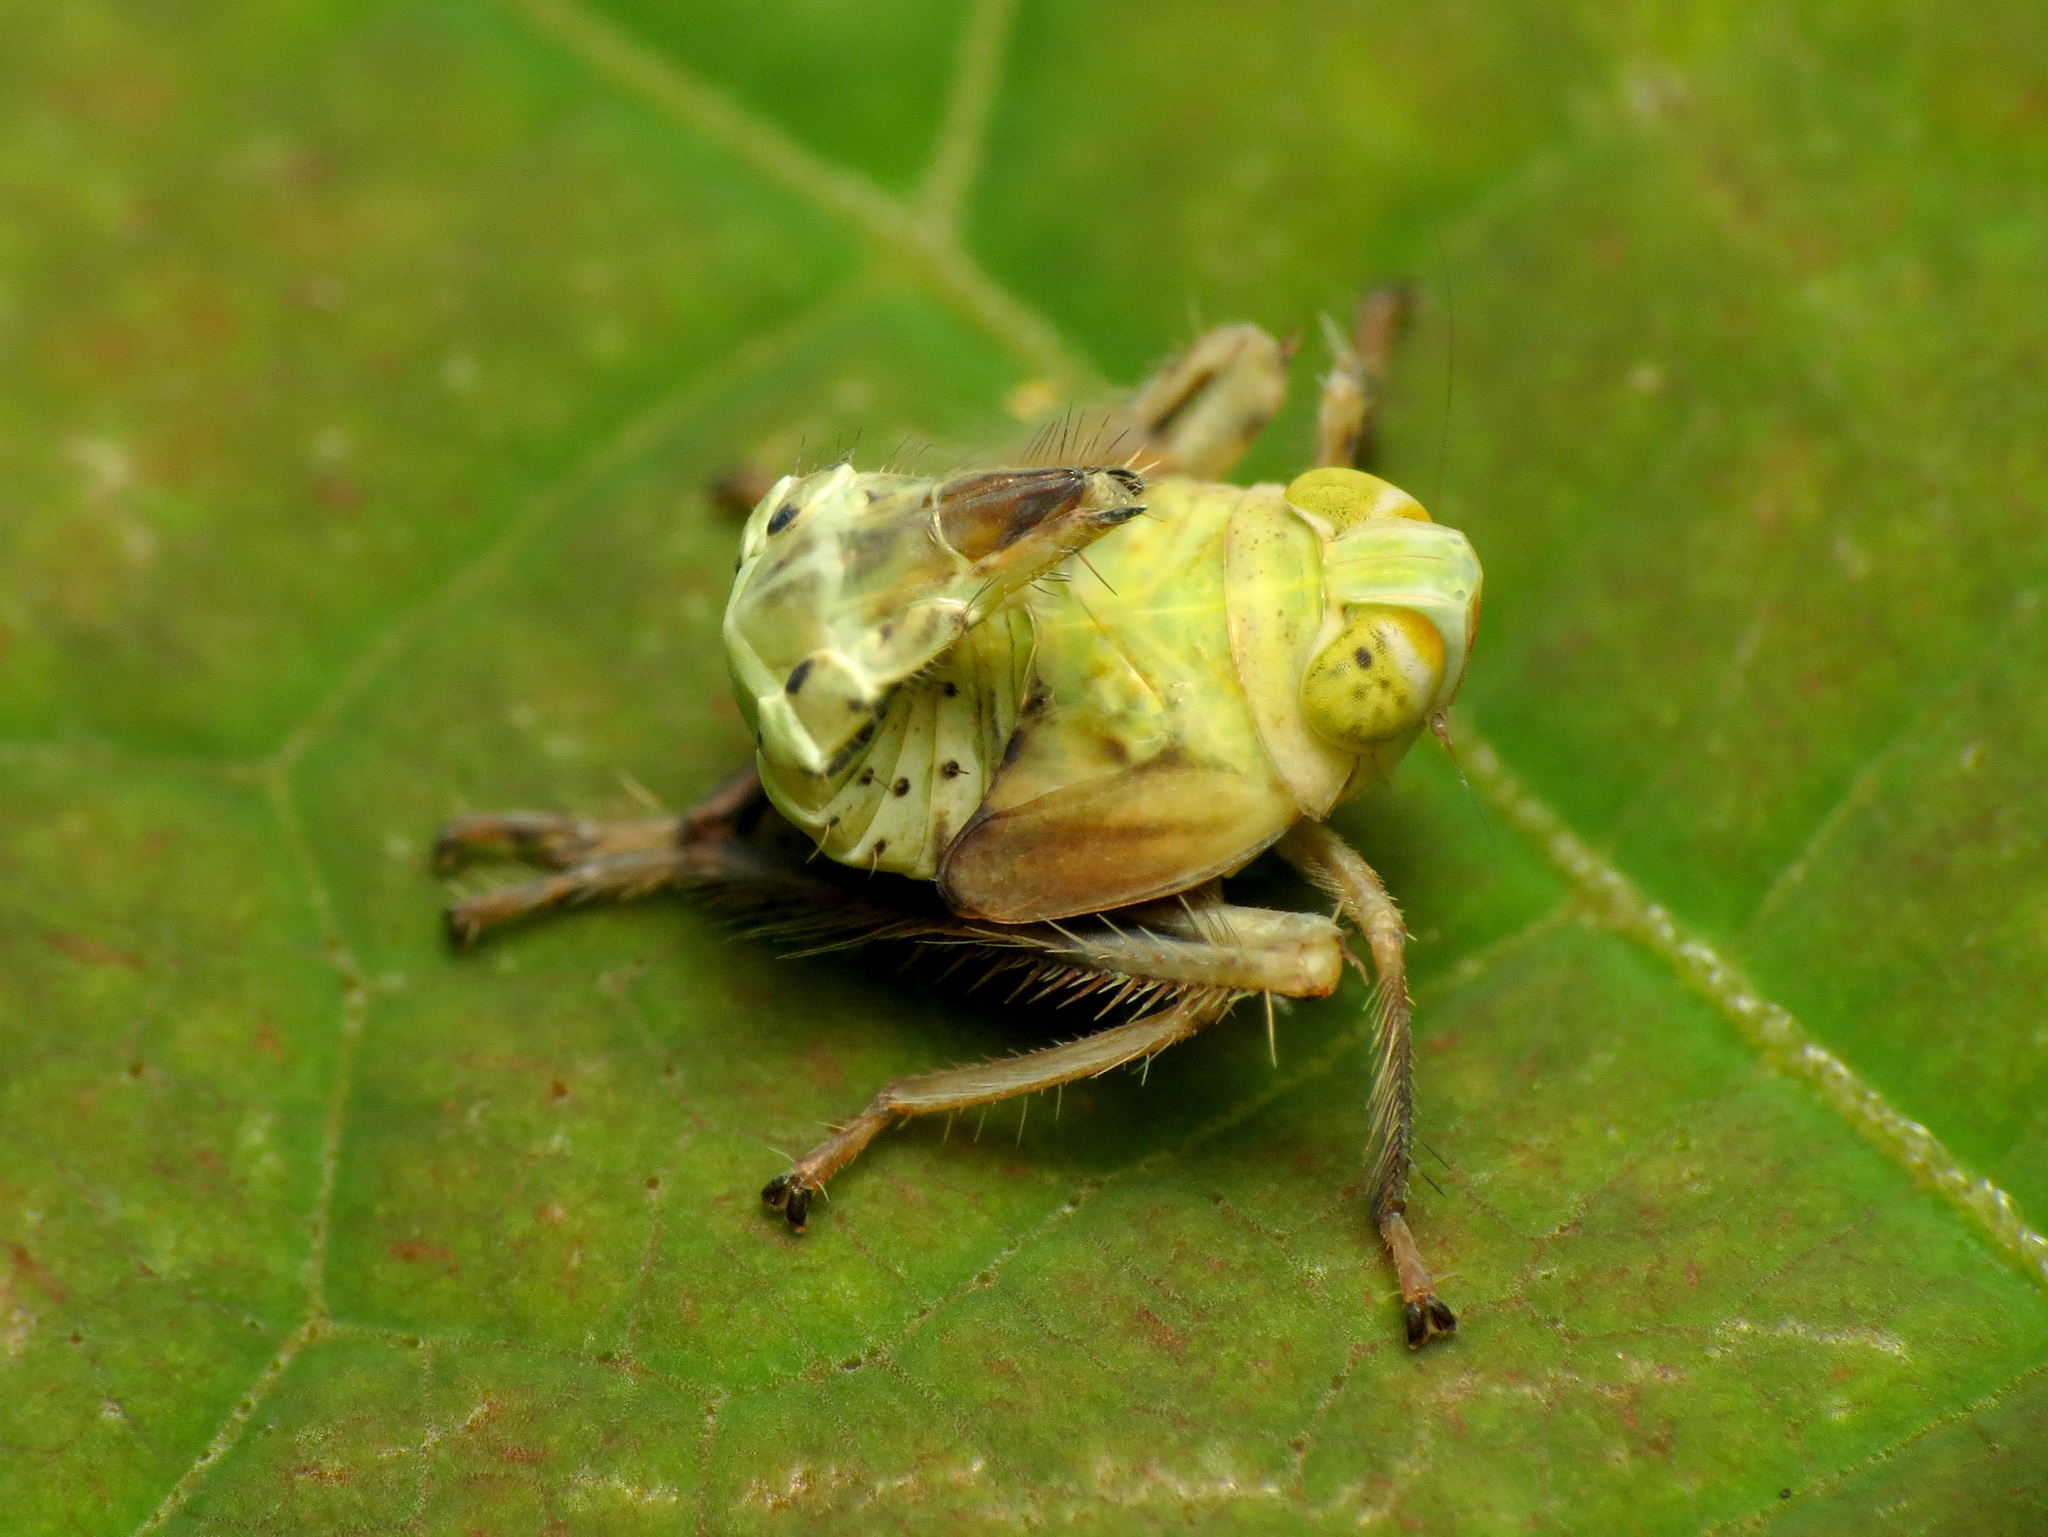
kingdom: Animalia
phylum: Arthropoda
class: Insecta
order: Hemiptera
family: Cicadellidae
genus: Jikradia
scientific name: Jikradia olitoria
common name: Coppery leafhopper
